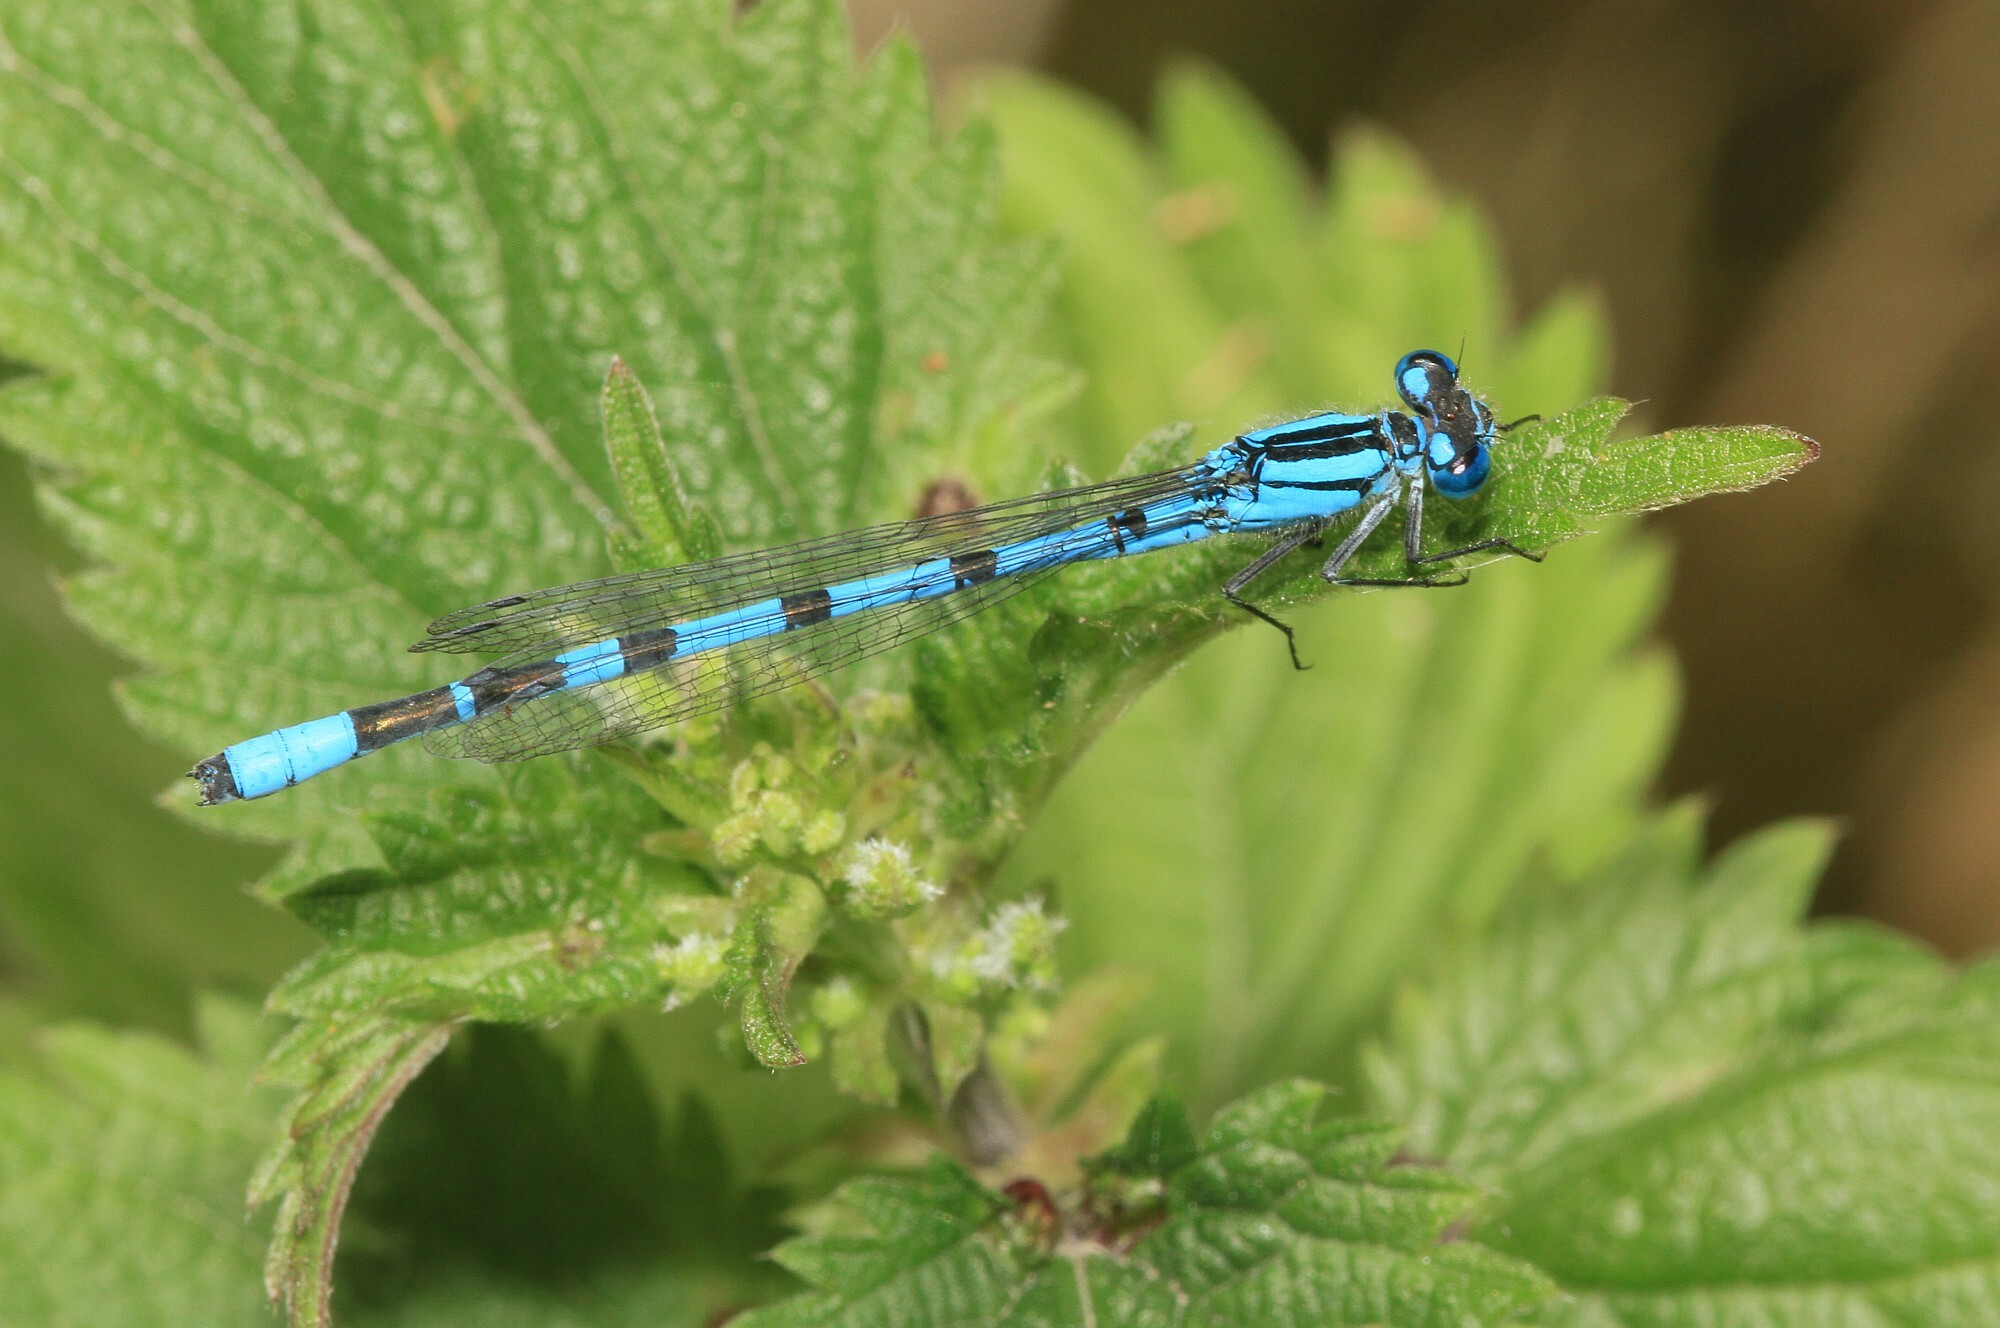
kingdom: Animalia
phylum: Arthropoda
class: Insecta
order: Odonata
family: Coenagrionidae
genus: Enallagma
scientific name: Enallagma cyathigerum
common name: Common blue damselfly
